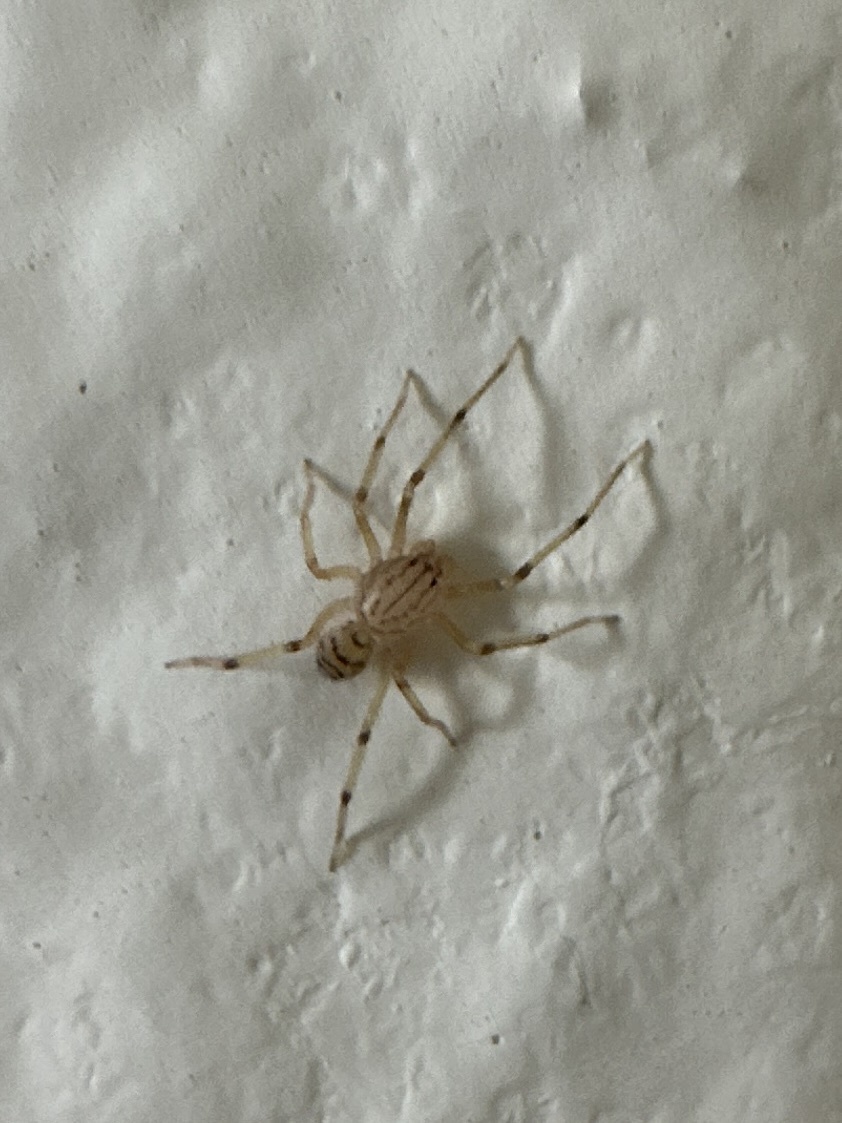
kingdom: Animalia
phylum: Arthropoda
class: Arachnida
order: Araneae
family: Scytodidae
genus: Dictis
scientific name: Dictis striatipes
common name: Spider
